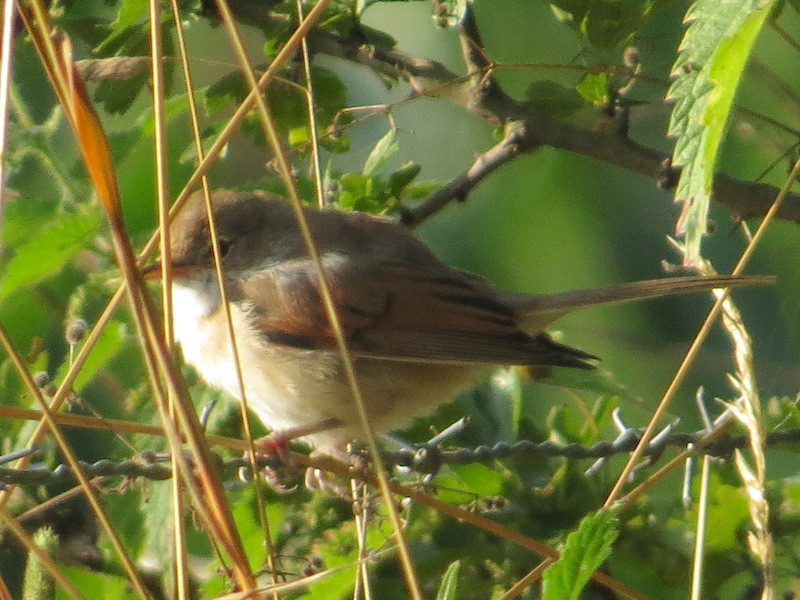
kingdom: Animalia
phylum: Chordata
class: Aves
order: Passeriformes
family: Sylviidae
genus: Sylvia
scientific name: Sylvia communis
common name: Common whitethroat
